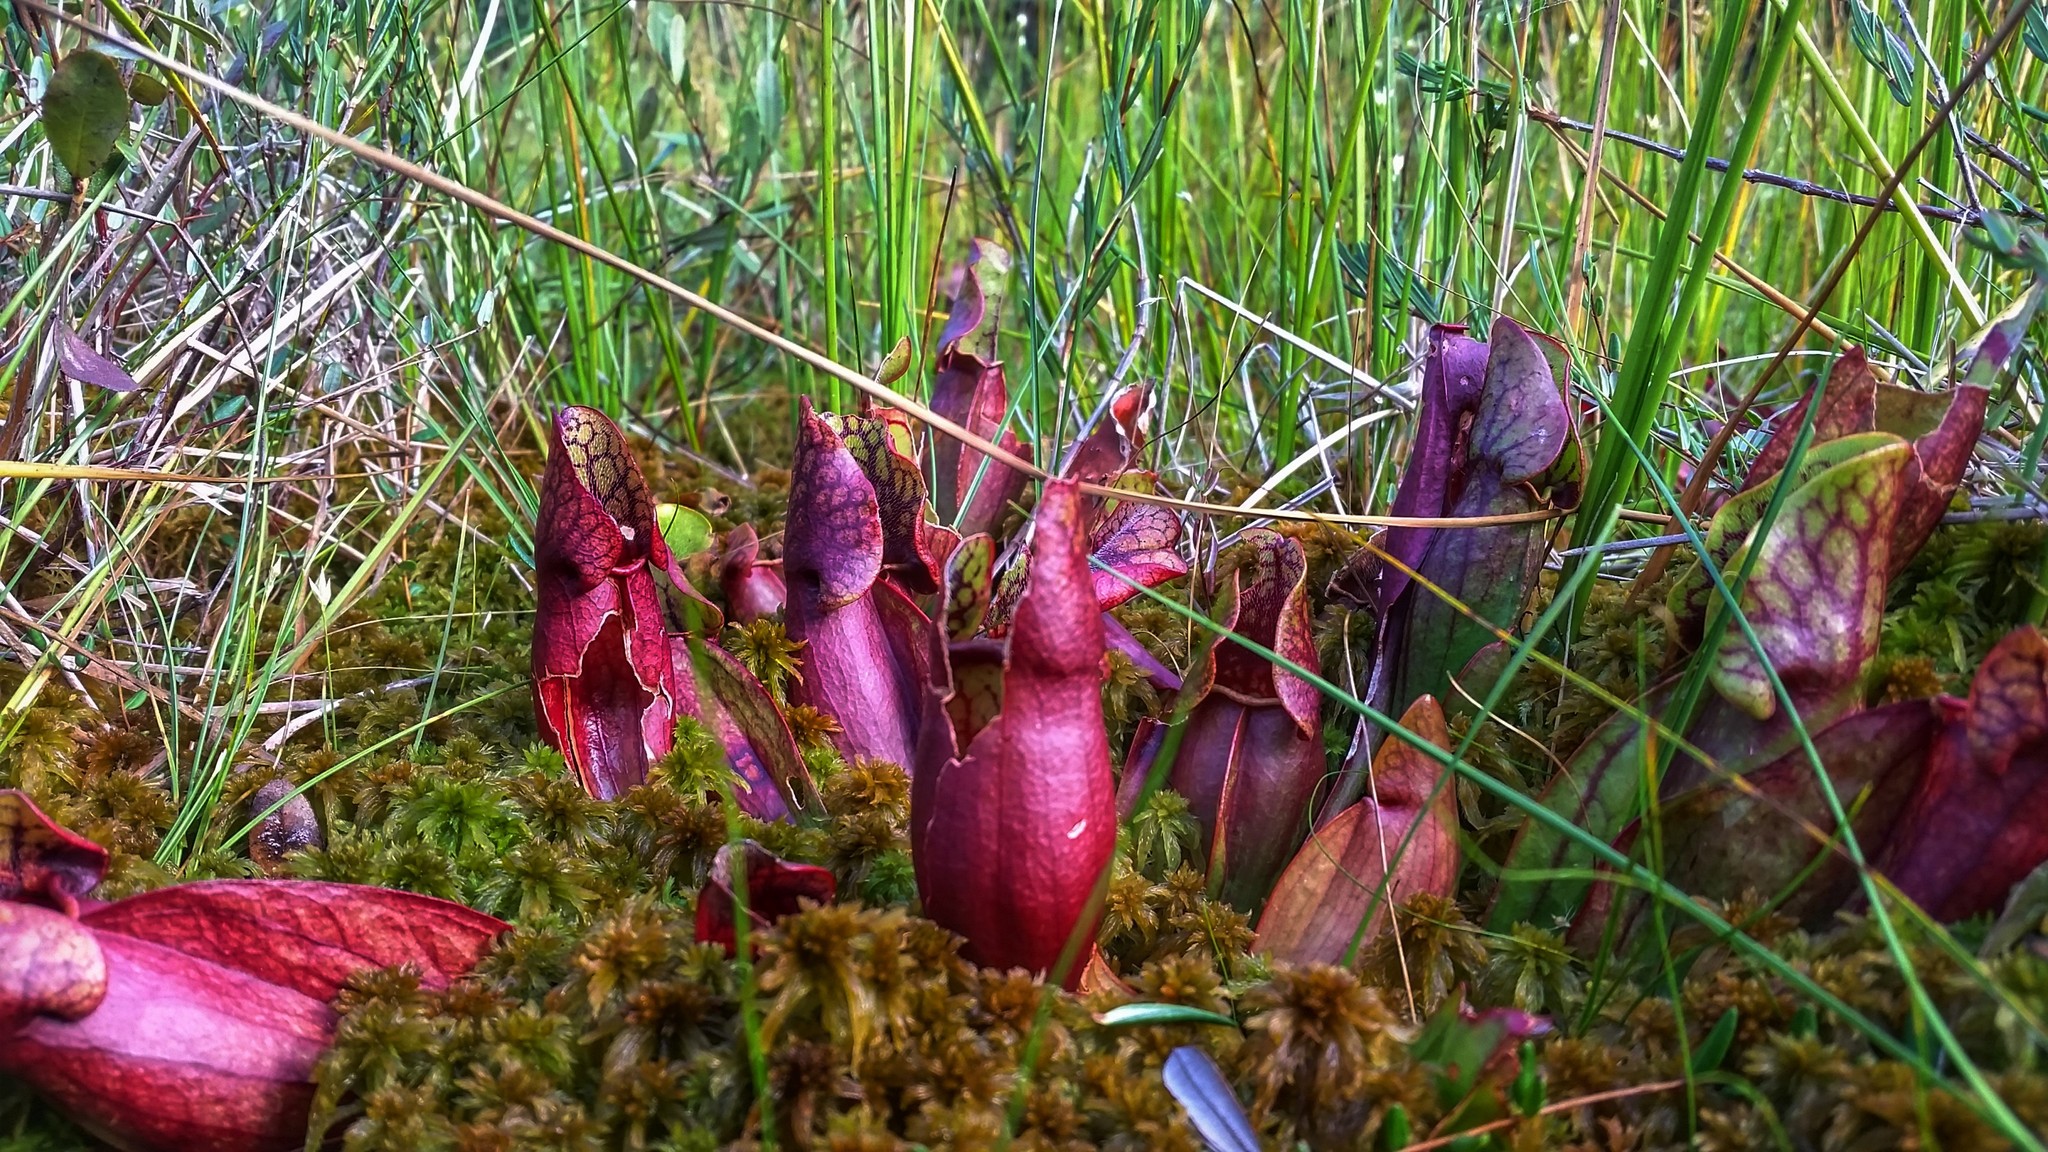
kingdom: Plantae
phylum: Tracheophyta
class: Magnoliopsida
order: Ericales
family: Sarraceniaceae
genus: Sarracenia
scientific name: Sarracenia purpurea
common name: Pitcherplant
